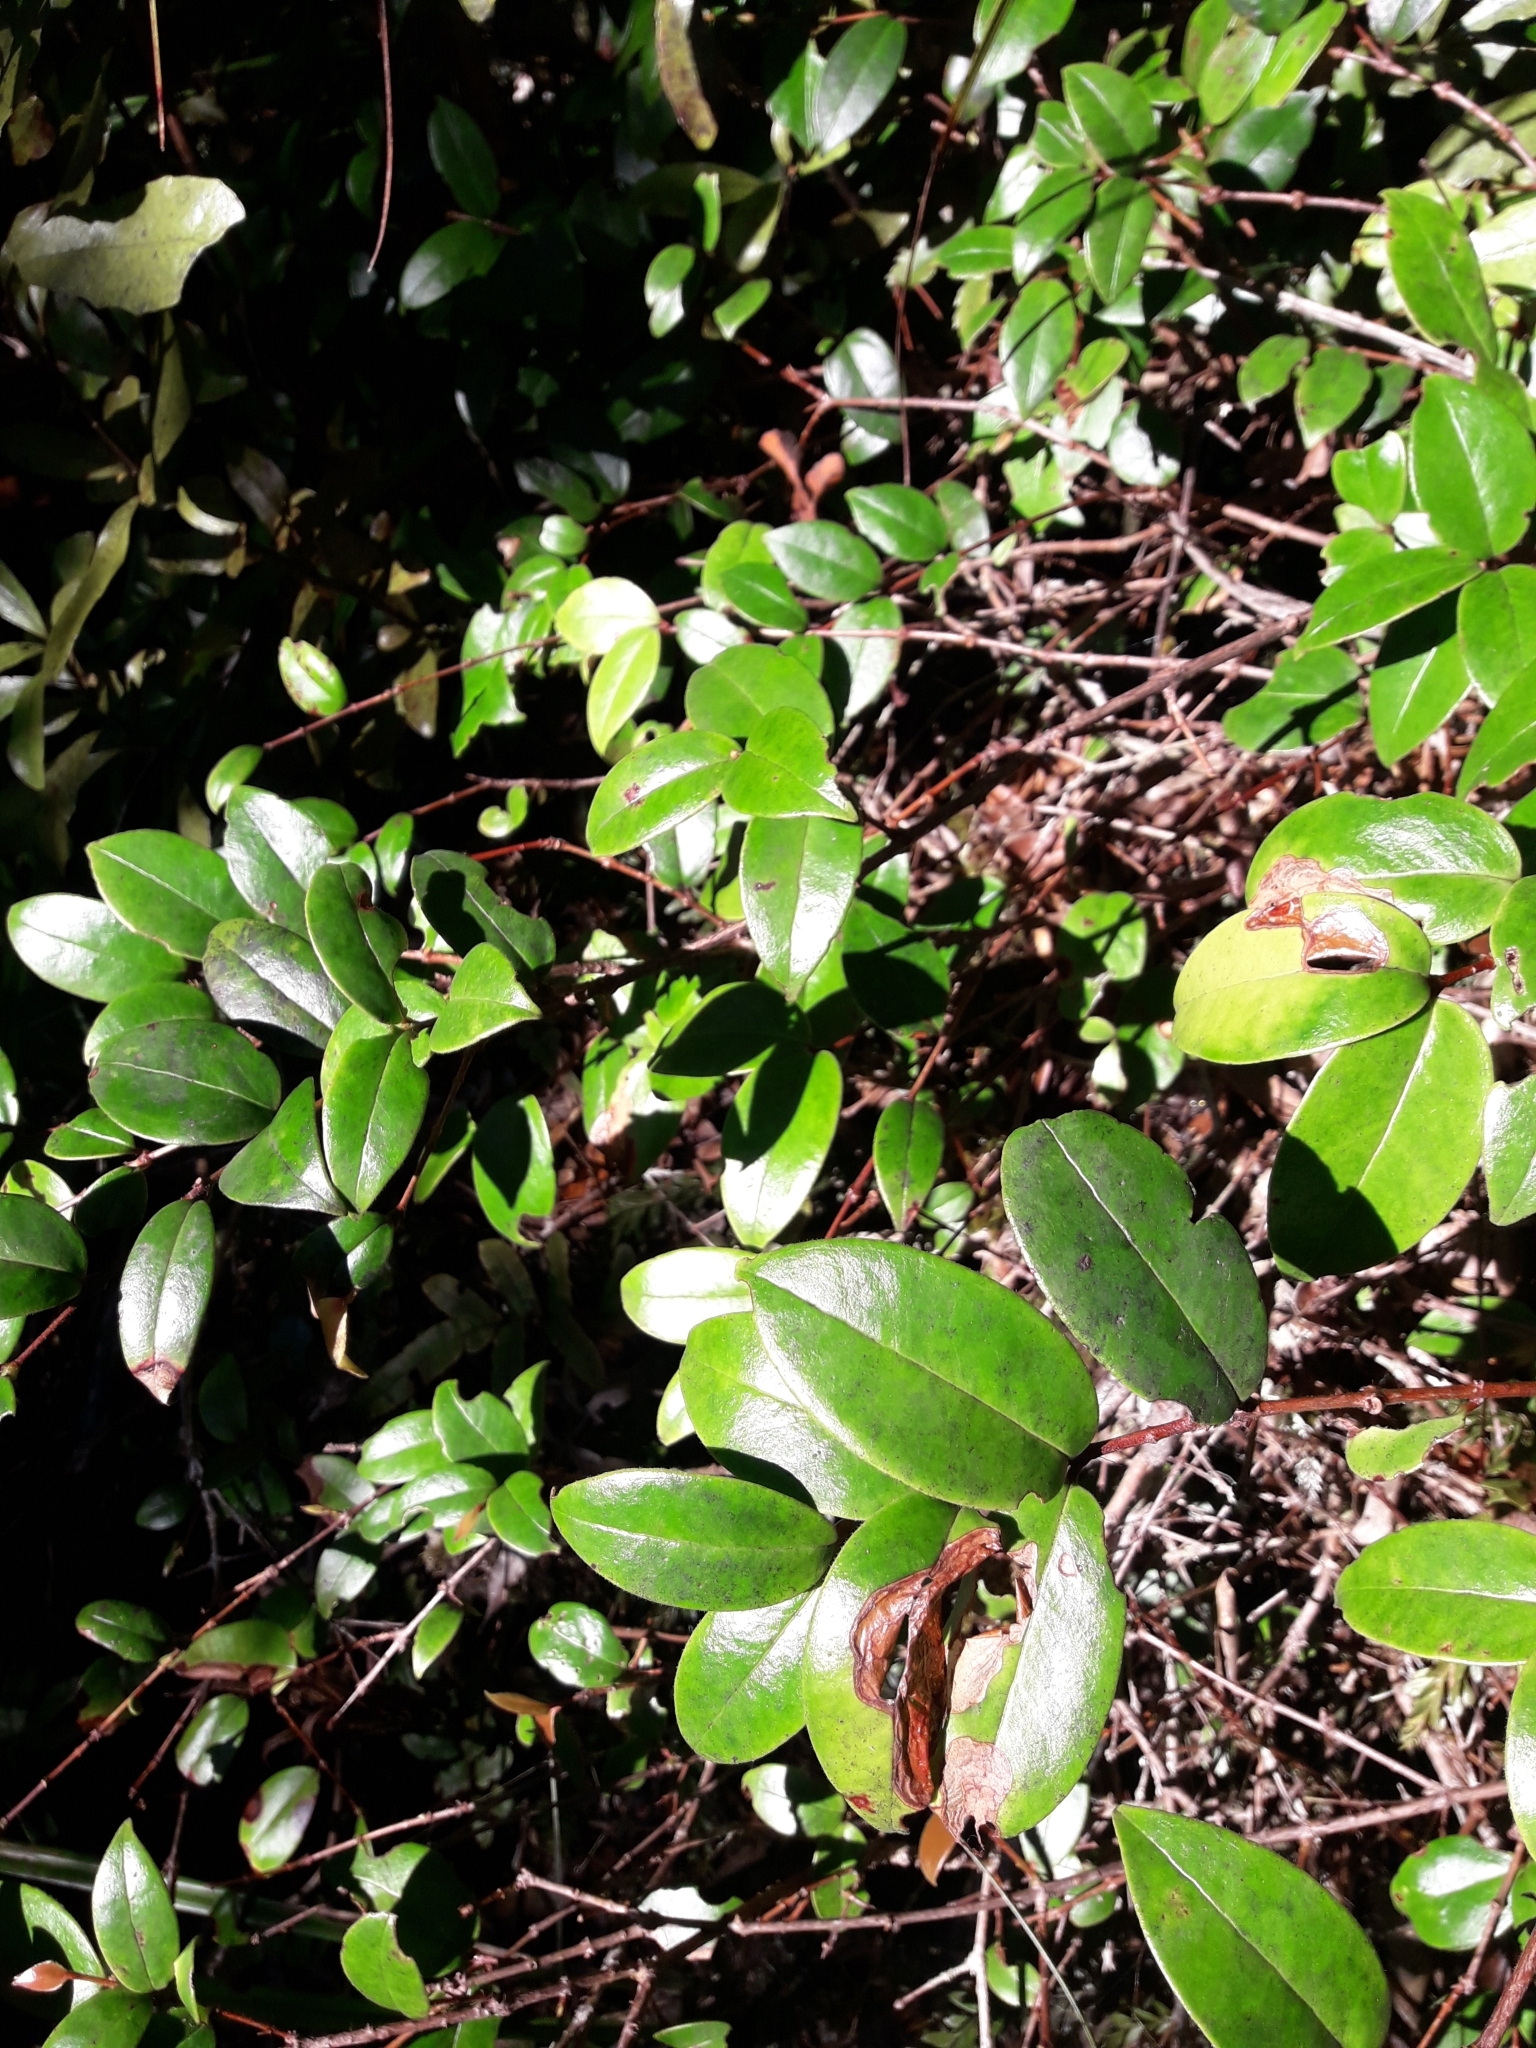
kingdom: Plantae
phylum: Tracheophyta
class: Magnoliopsida
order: Myrtales
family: Myrtaceae
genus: Metrosideros
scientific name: Metrosideros albiflora
